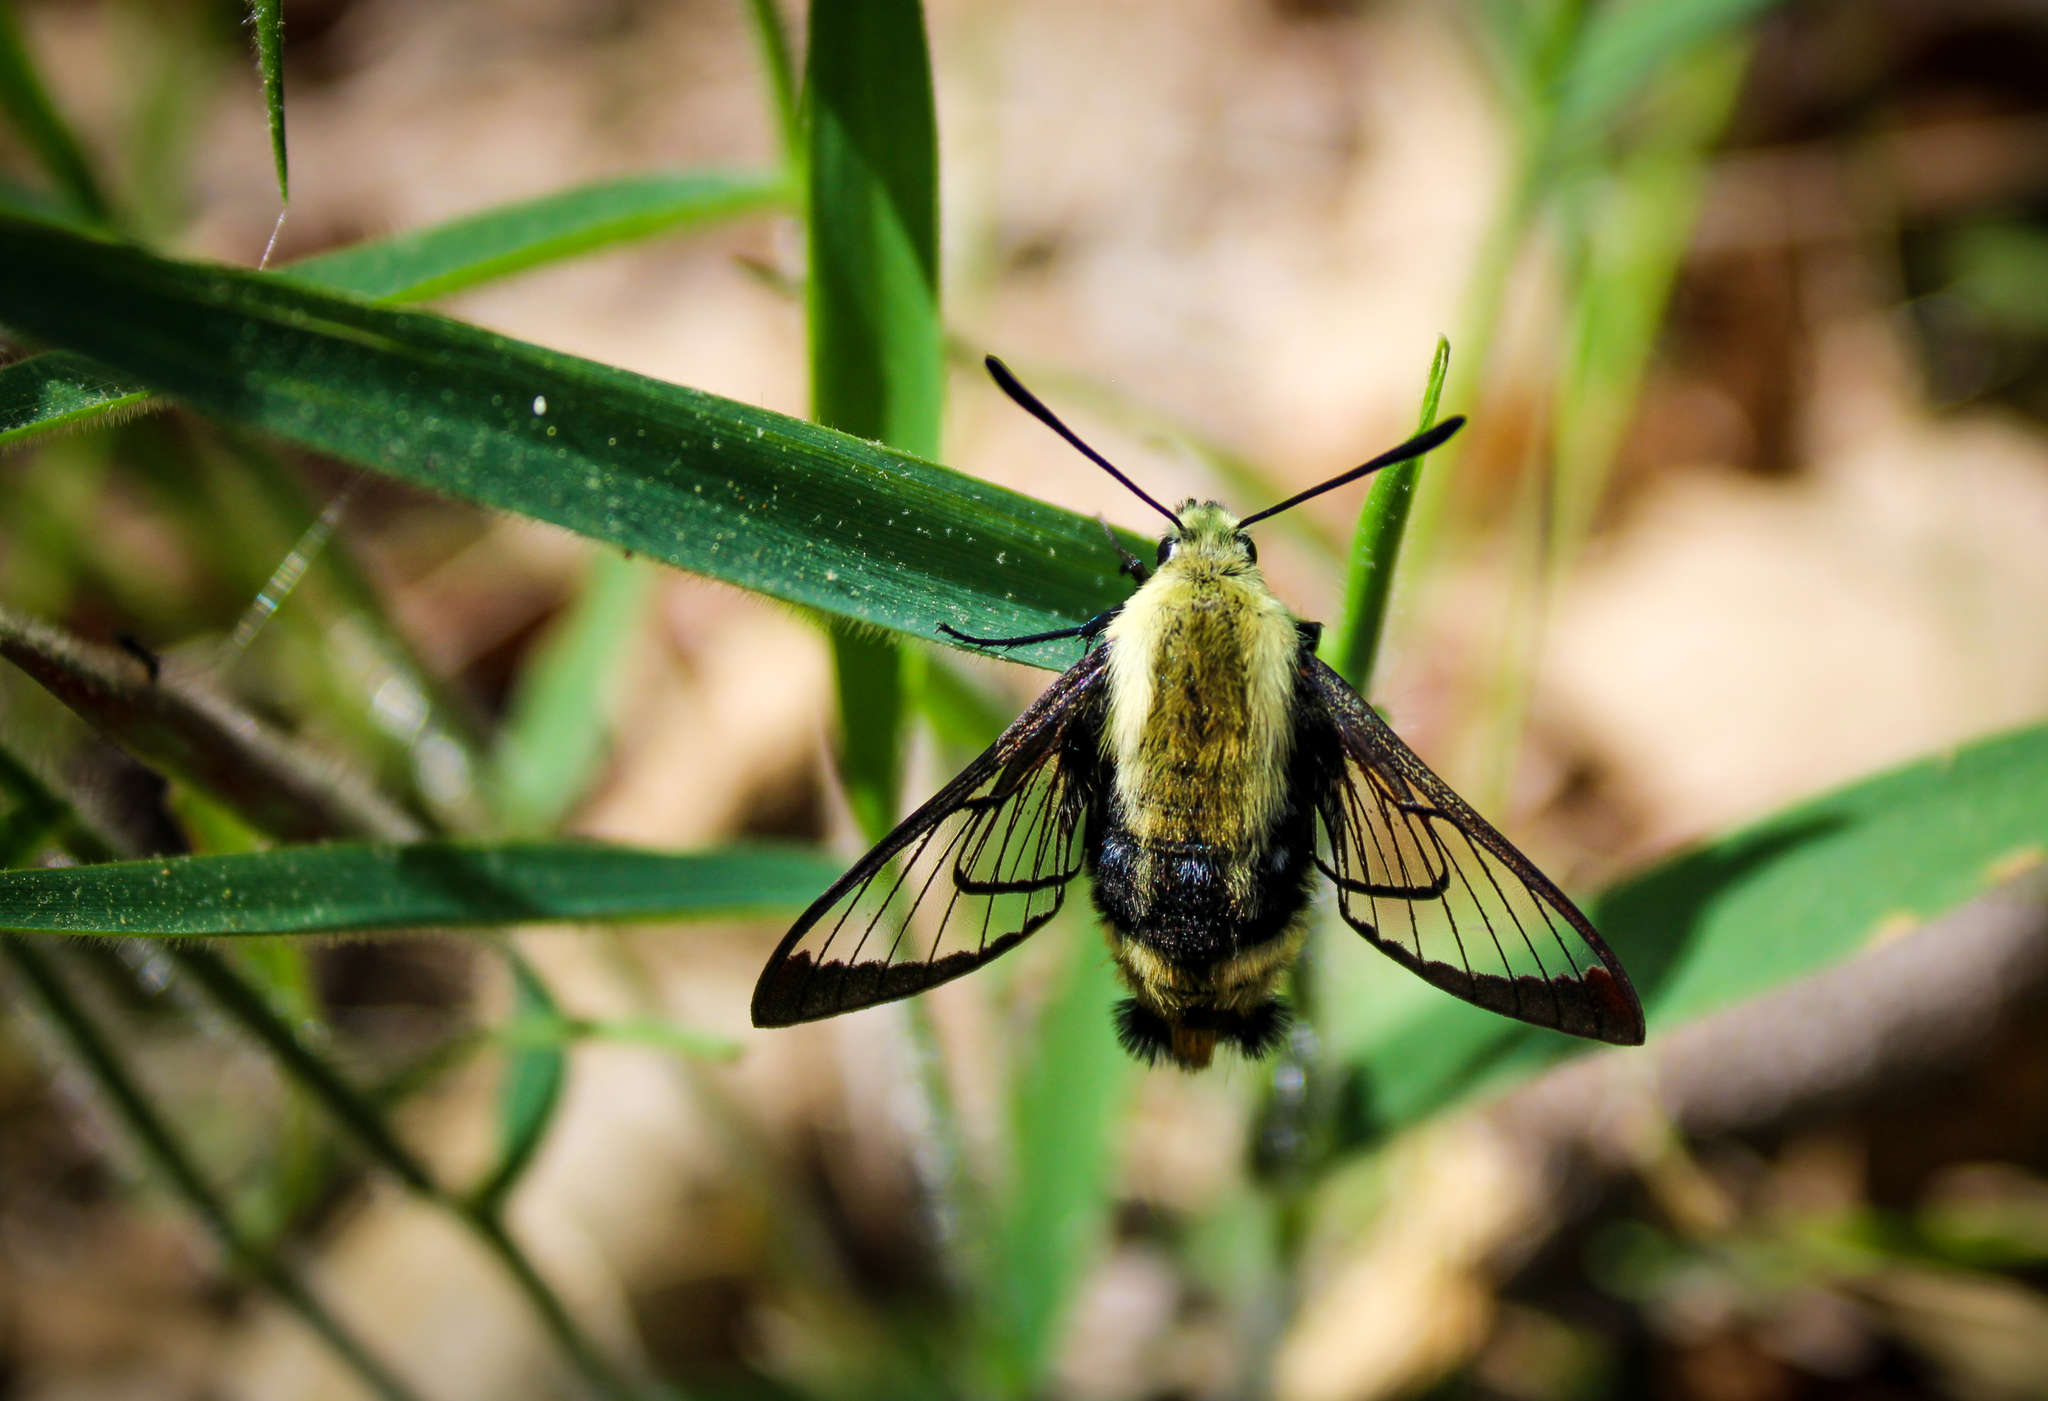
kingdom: Animalia
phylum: Arthropoda
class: Insecta
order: Lepidoptera
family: Sphingidae
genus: Hemaris
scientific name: Hemaris diffinis
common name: Bumblebee moth
